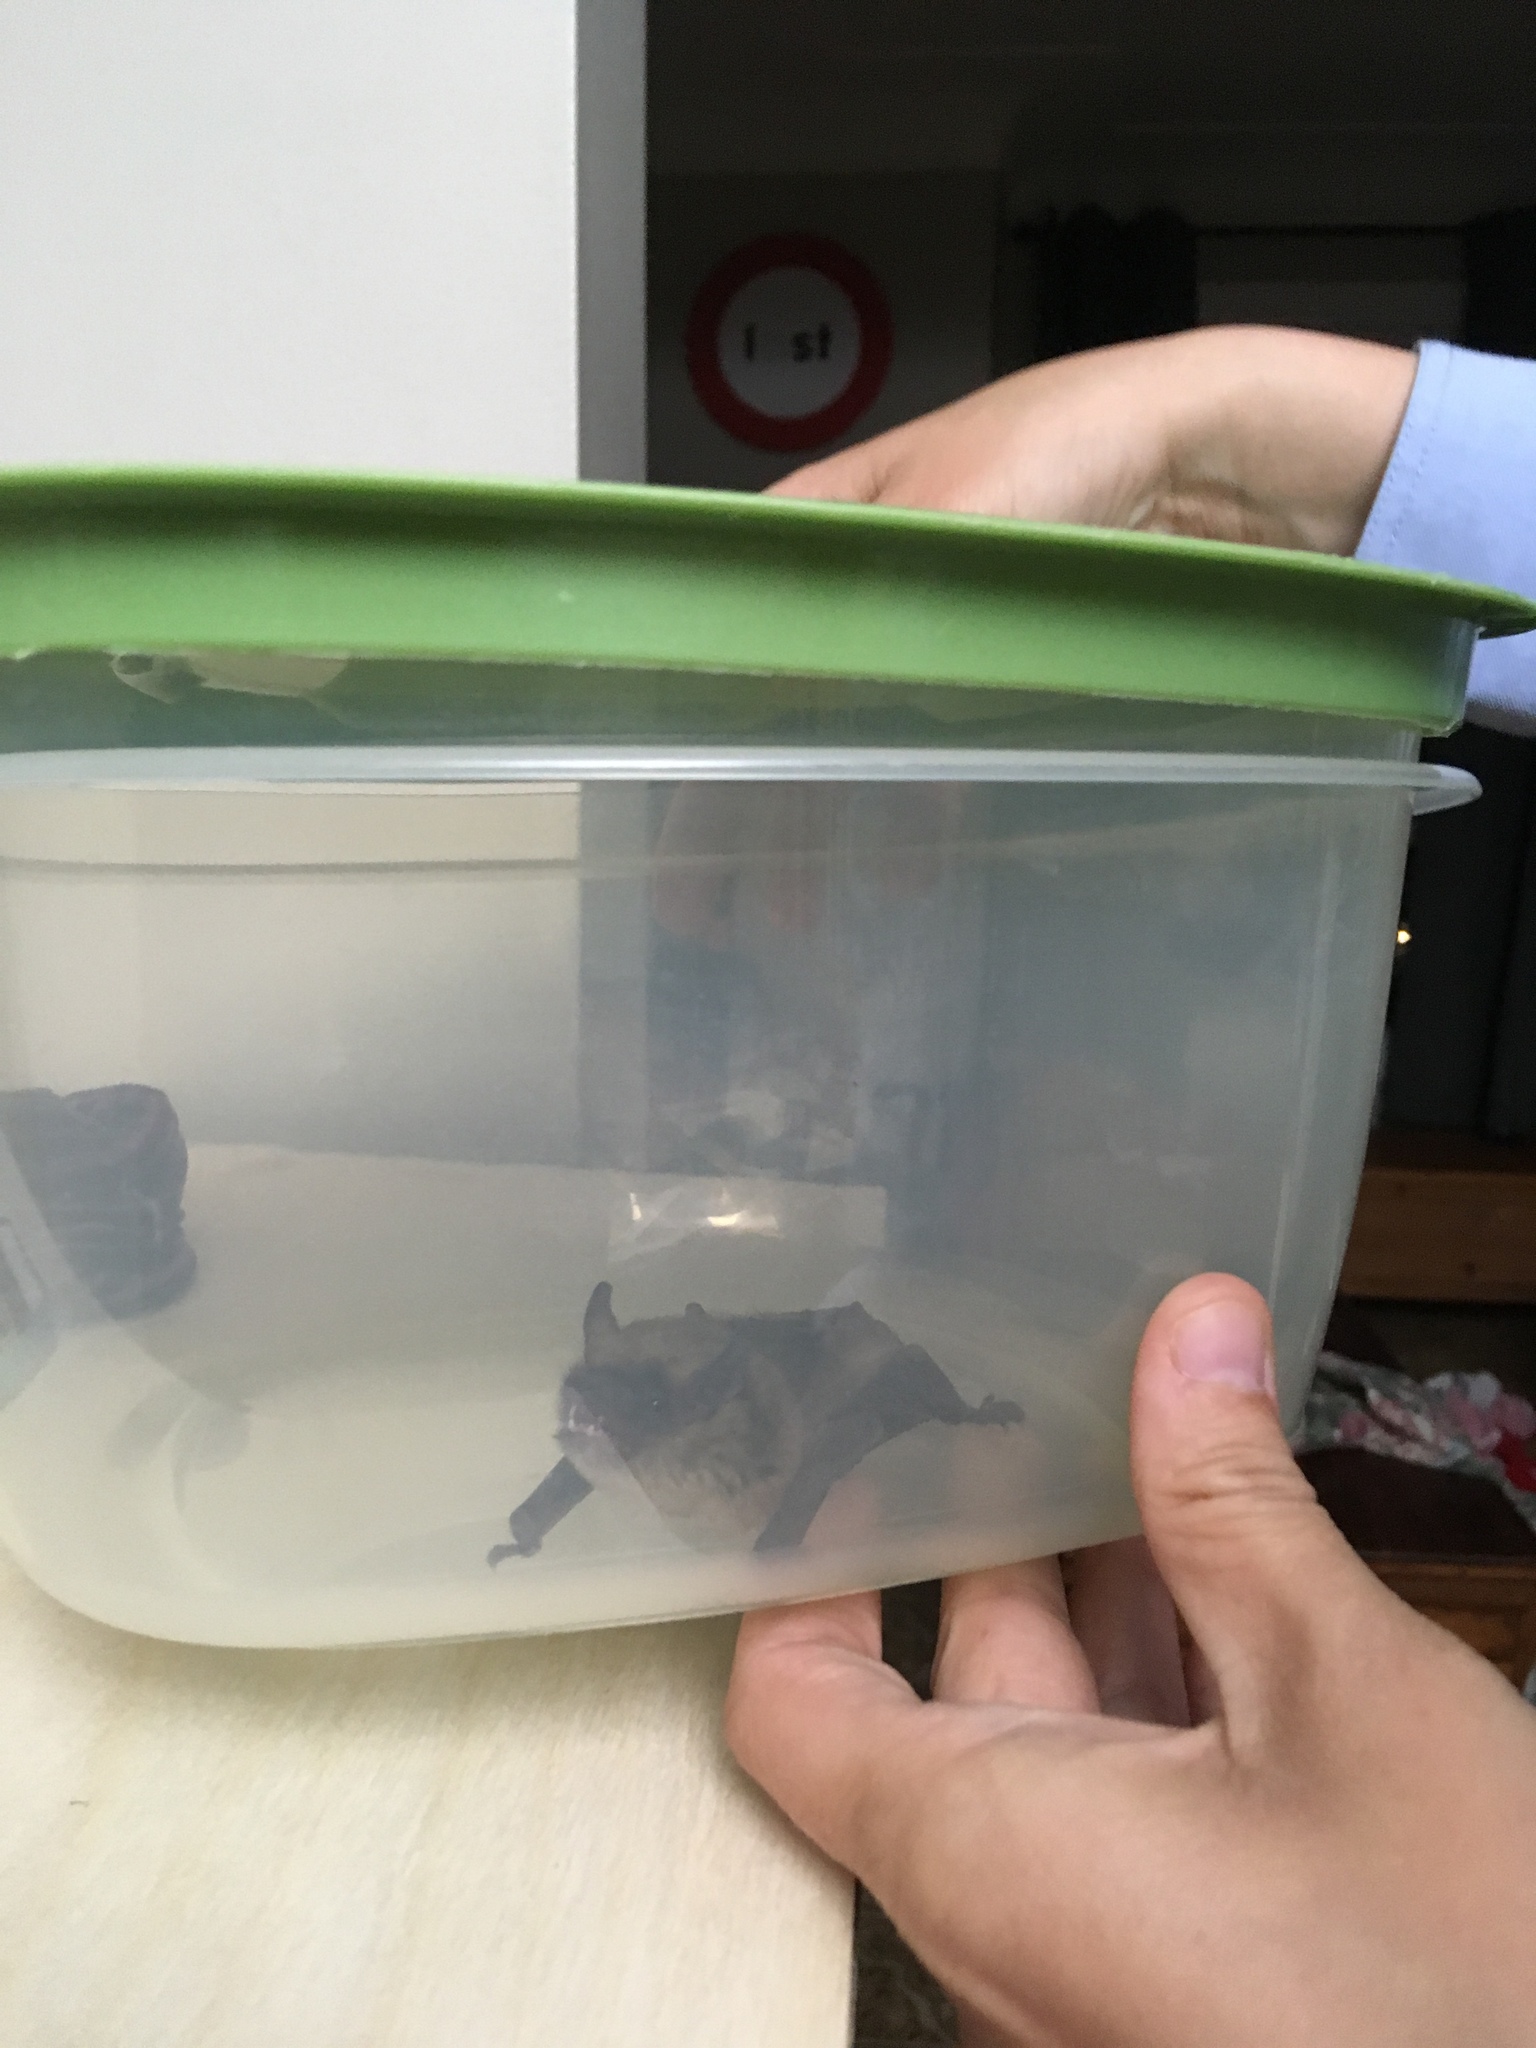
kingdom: Animalia
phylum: Chordata
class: Mammalia
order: Chiroptera
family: Vespertilionidae
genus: Eptesicus
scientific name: Eptesicus fuscus
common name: Big brown bat
